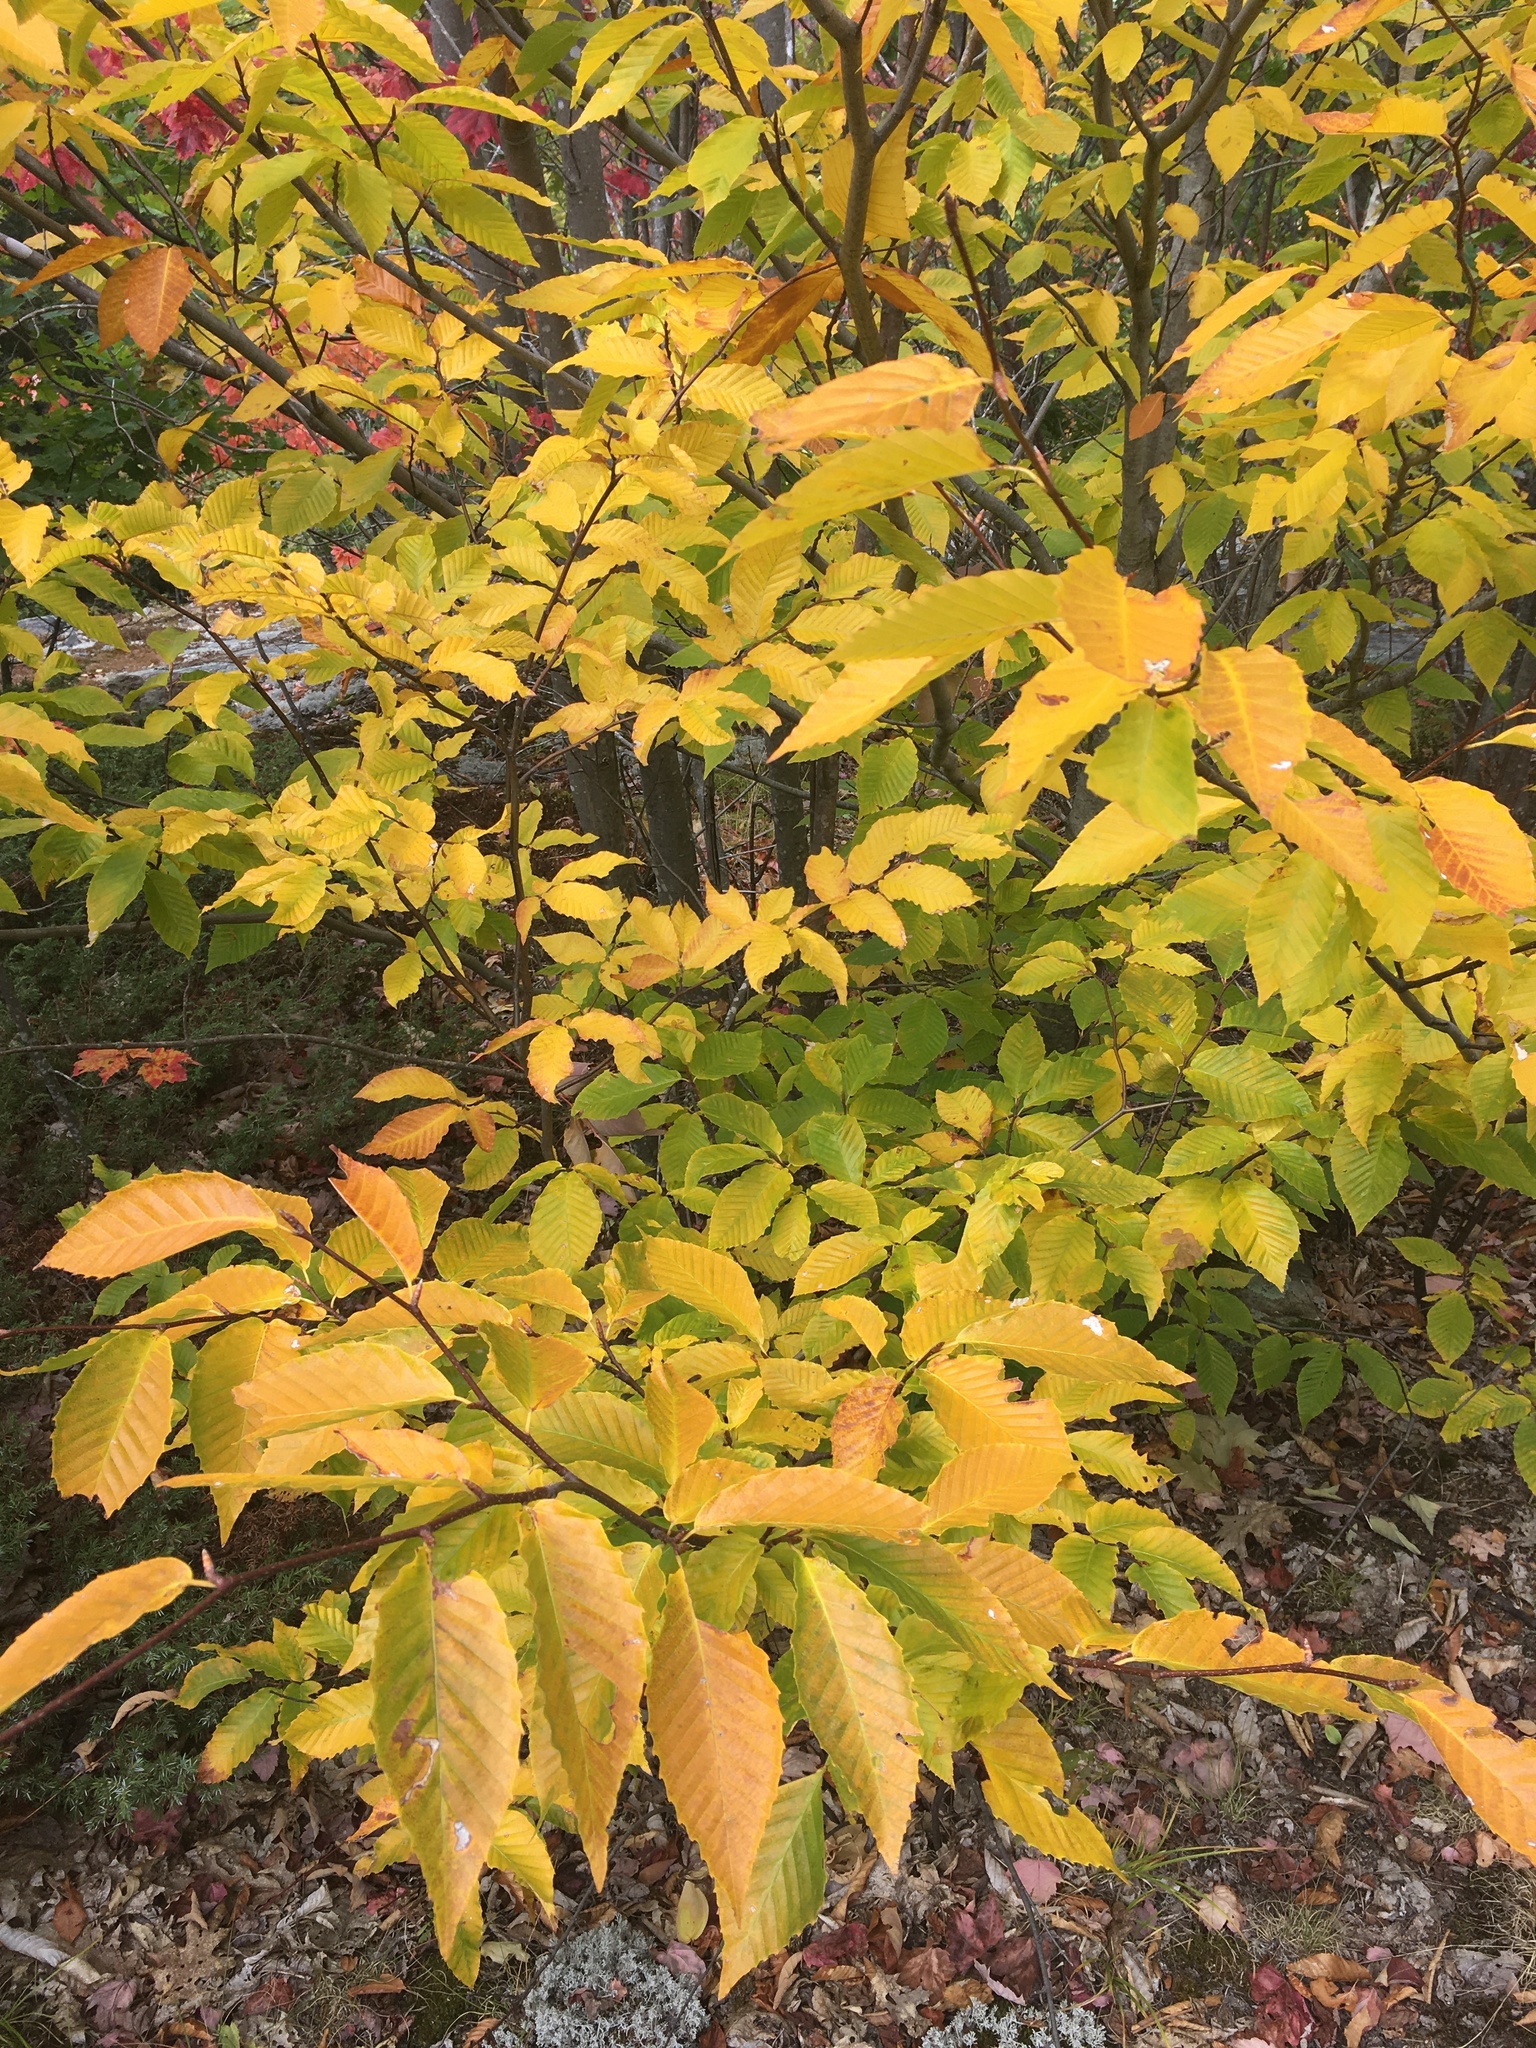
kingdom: Plantae
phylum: Tracheophyta
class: Magnoliopsida
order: Fagales
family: Fagaceae
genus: Fagus
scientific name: Fagus grandifolia
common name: American beech
